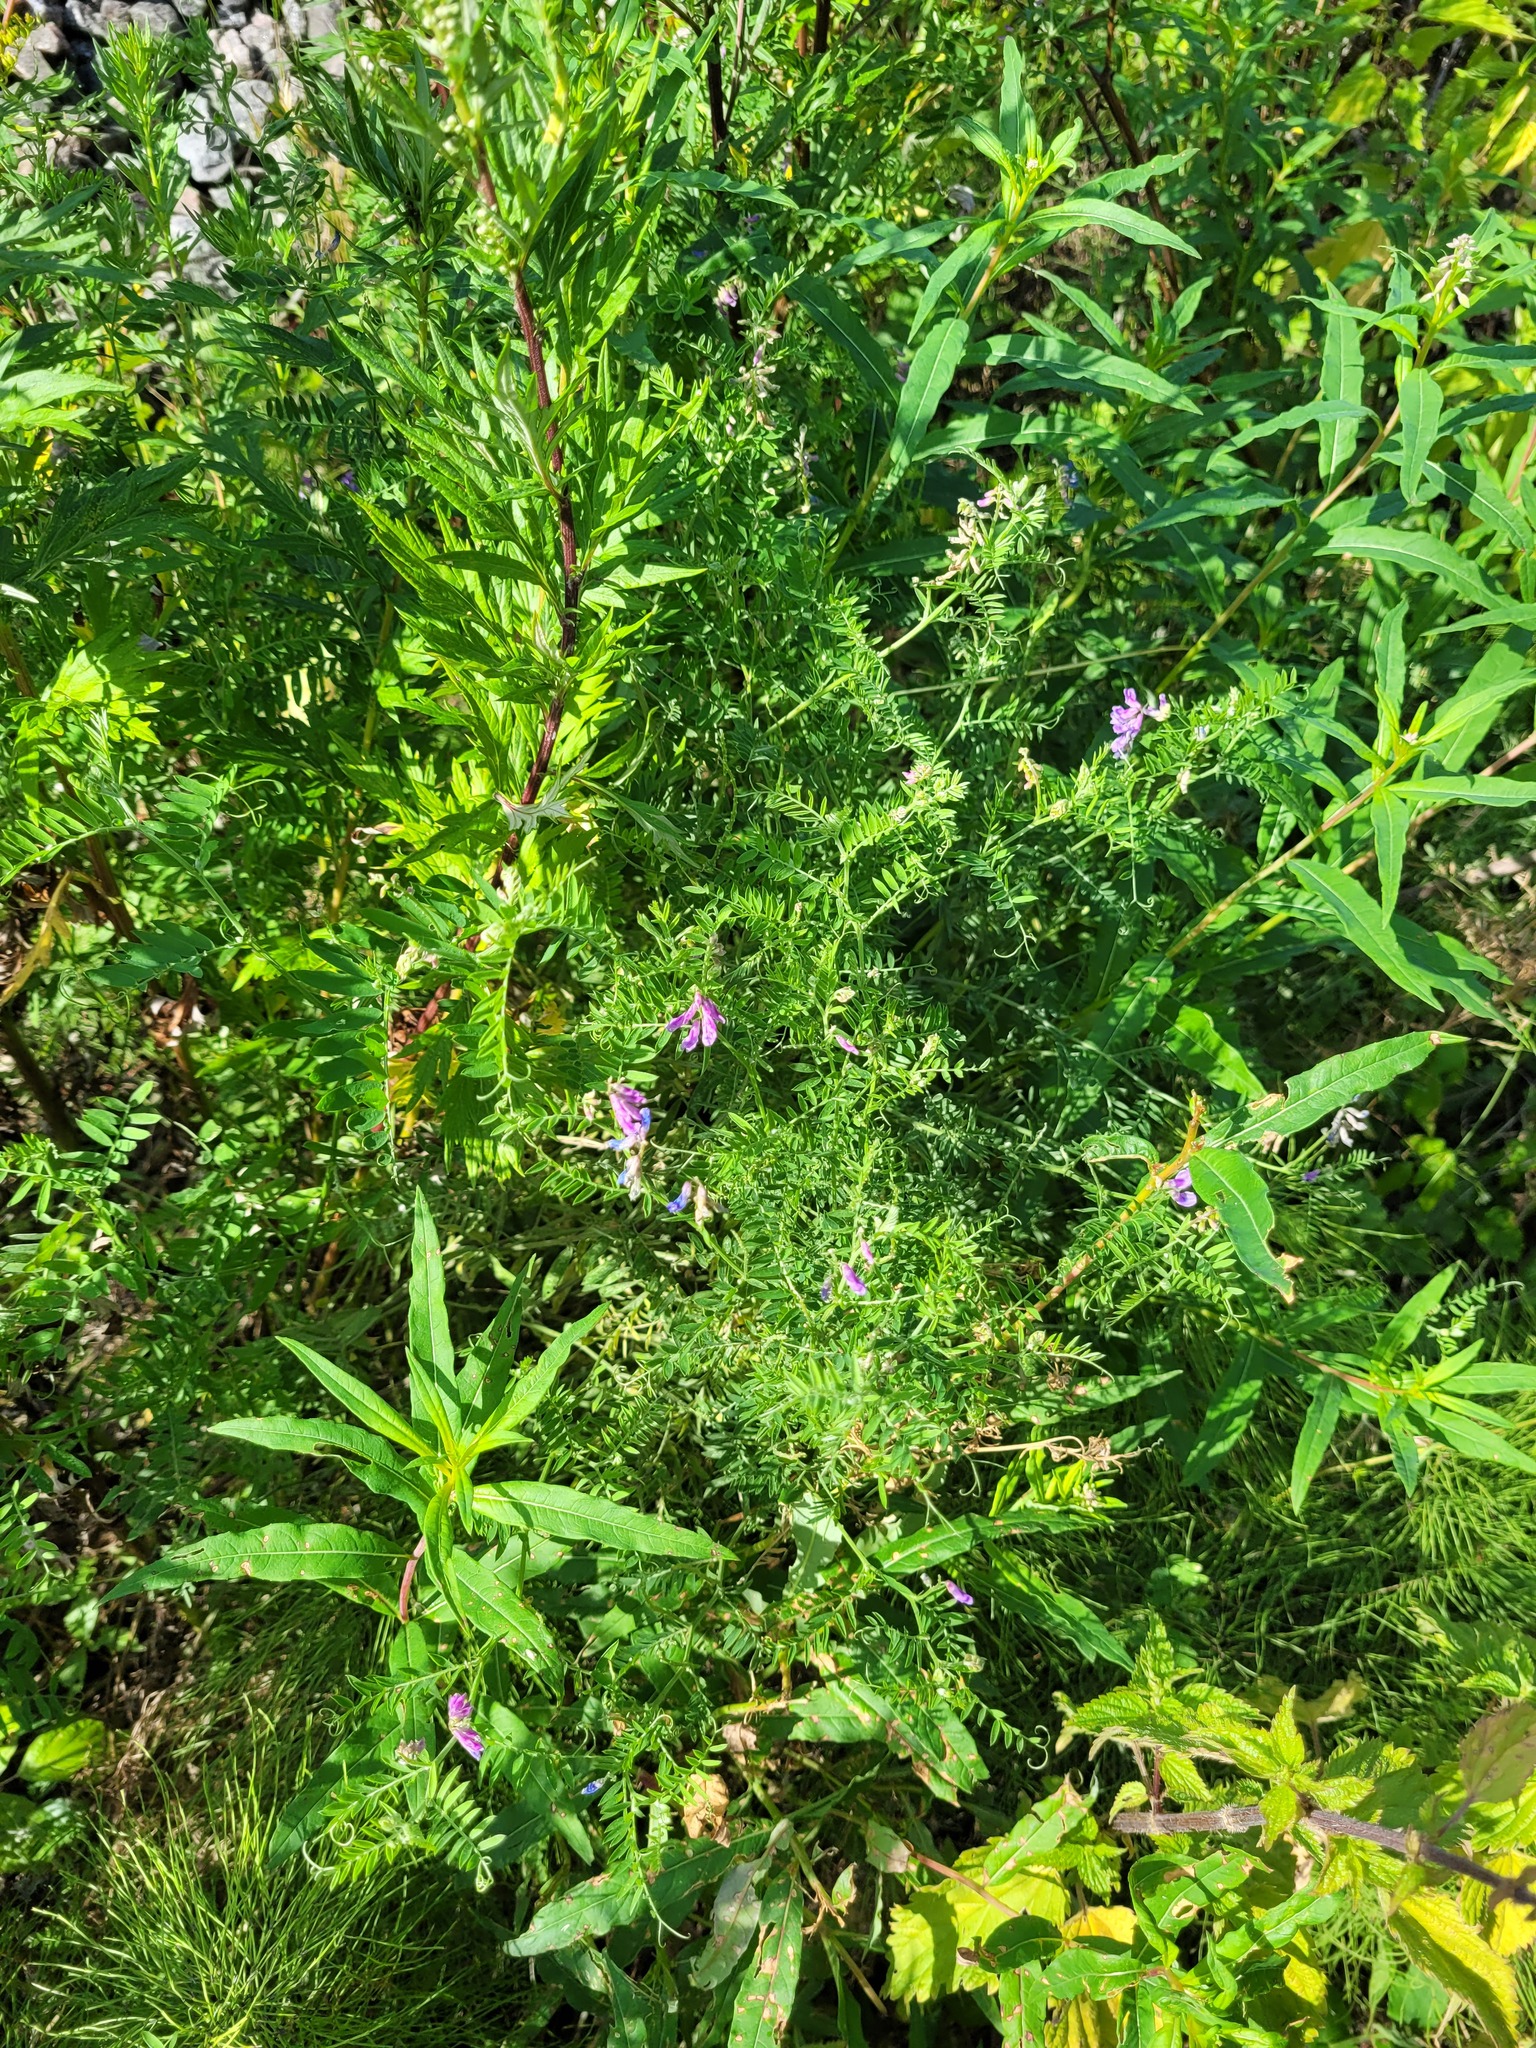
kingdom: Plantae
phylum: Tracheophyta
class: Magnoliopsida
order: Fabales
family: Fabaceae
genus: Vicia
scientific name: Vicia cracca
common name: Bird vetch
